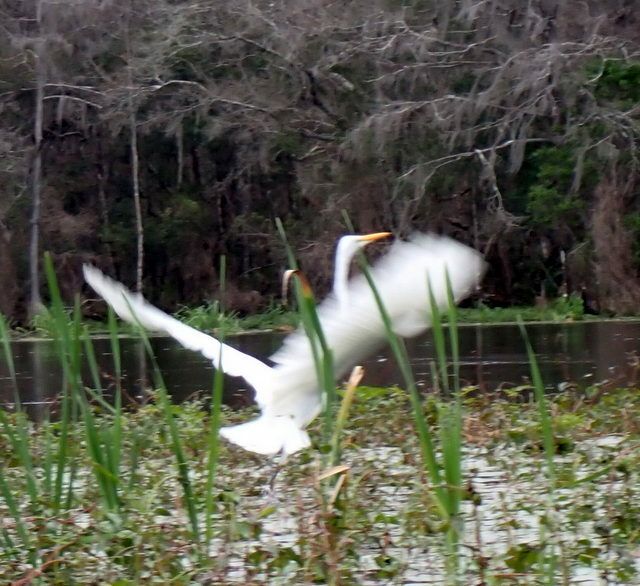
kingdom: Animalia
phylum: Chordata
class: Aves
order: Pelecaniformes
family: Ardeidae
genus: Ardea
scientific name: Ardea alba
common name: Great egret
